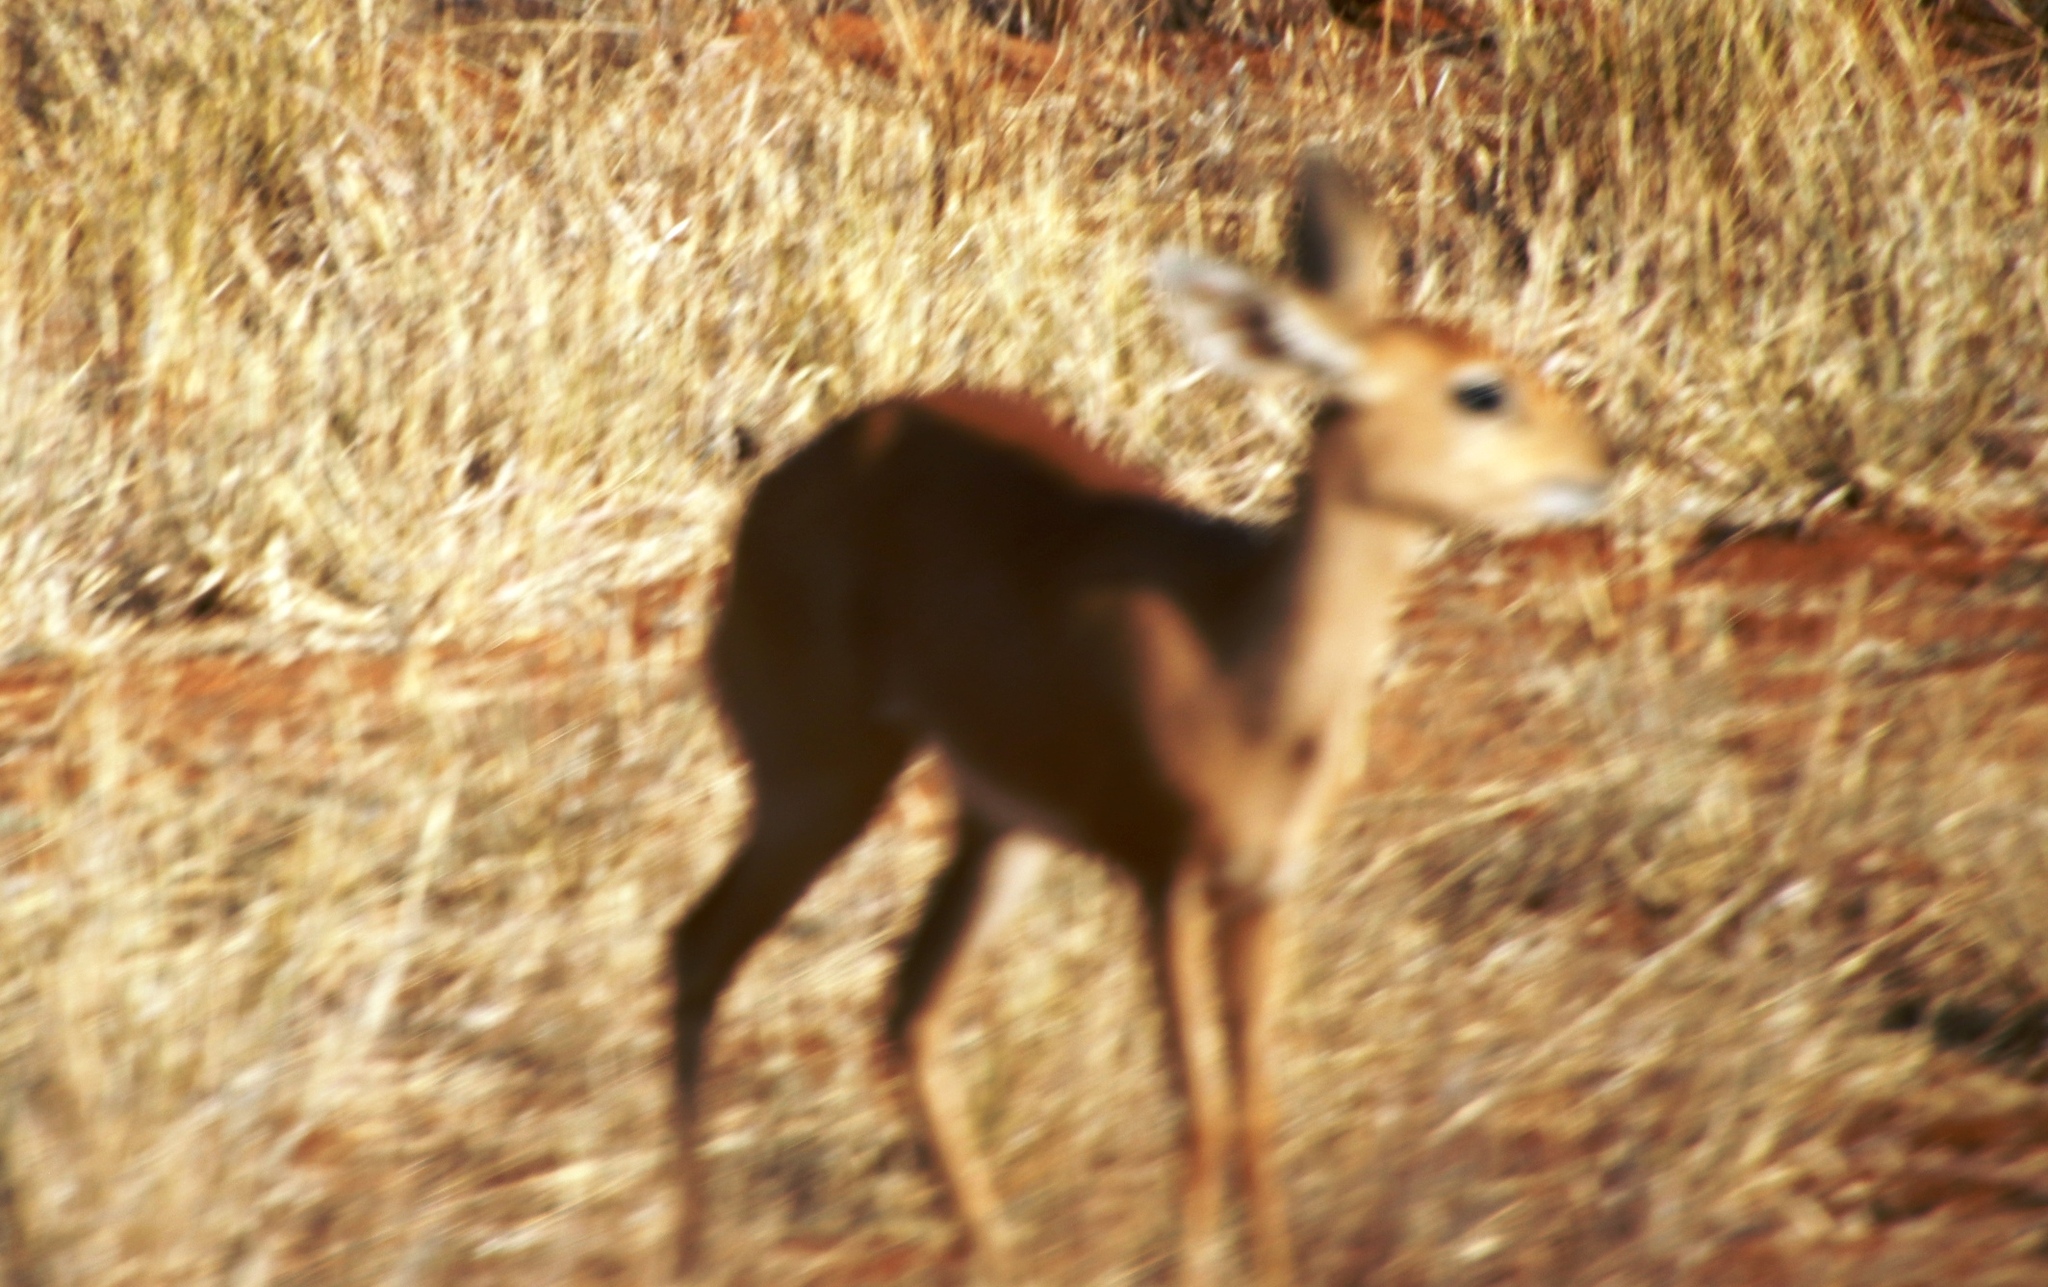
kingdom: Animalia
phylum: Chordata
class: Mammalia
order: Artiodactyla
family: Bovidae
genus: Raphicerus
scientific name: Raphicerus campestris
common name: Steenbok
